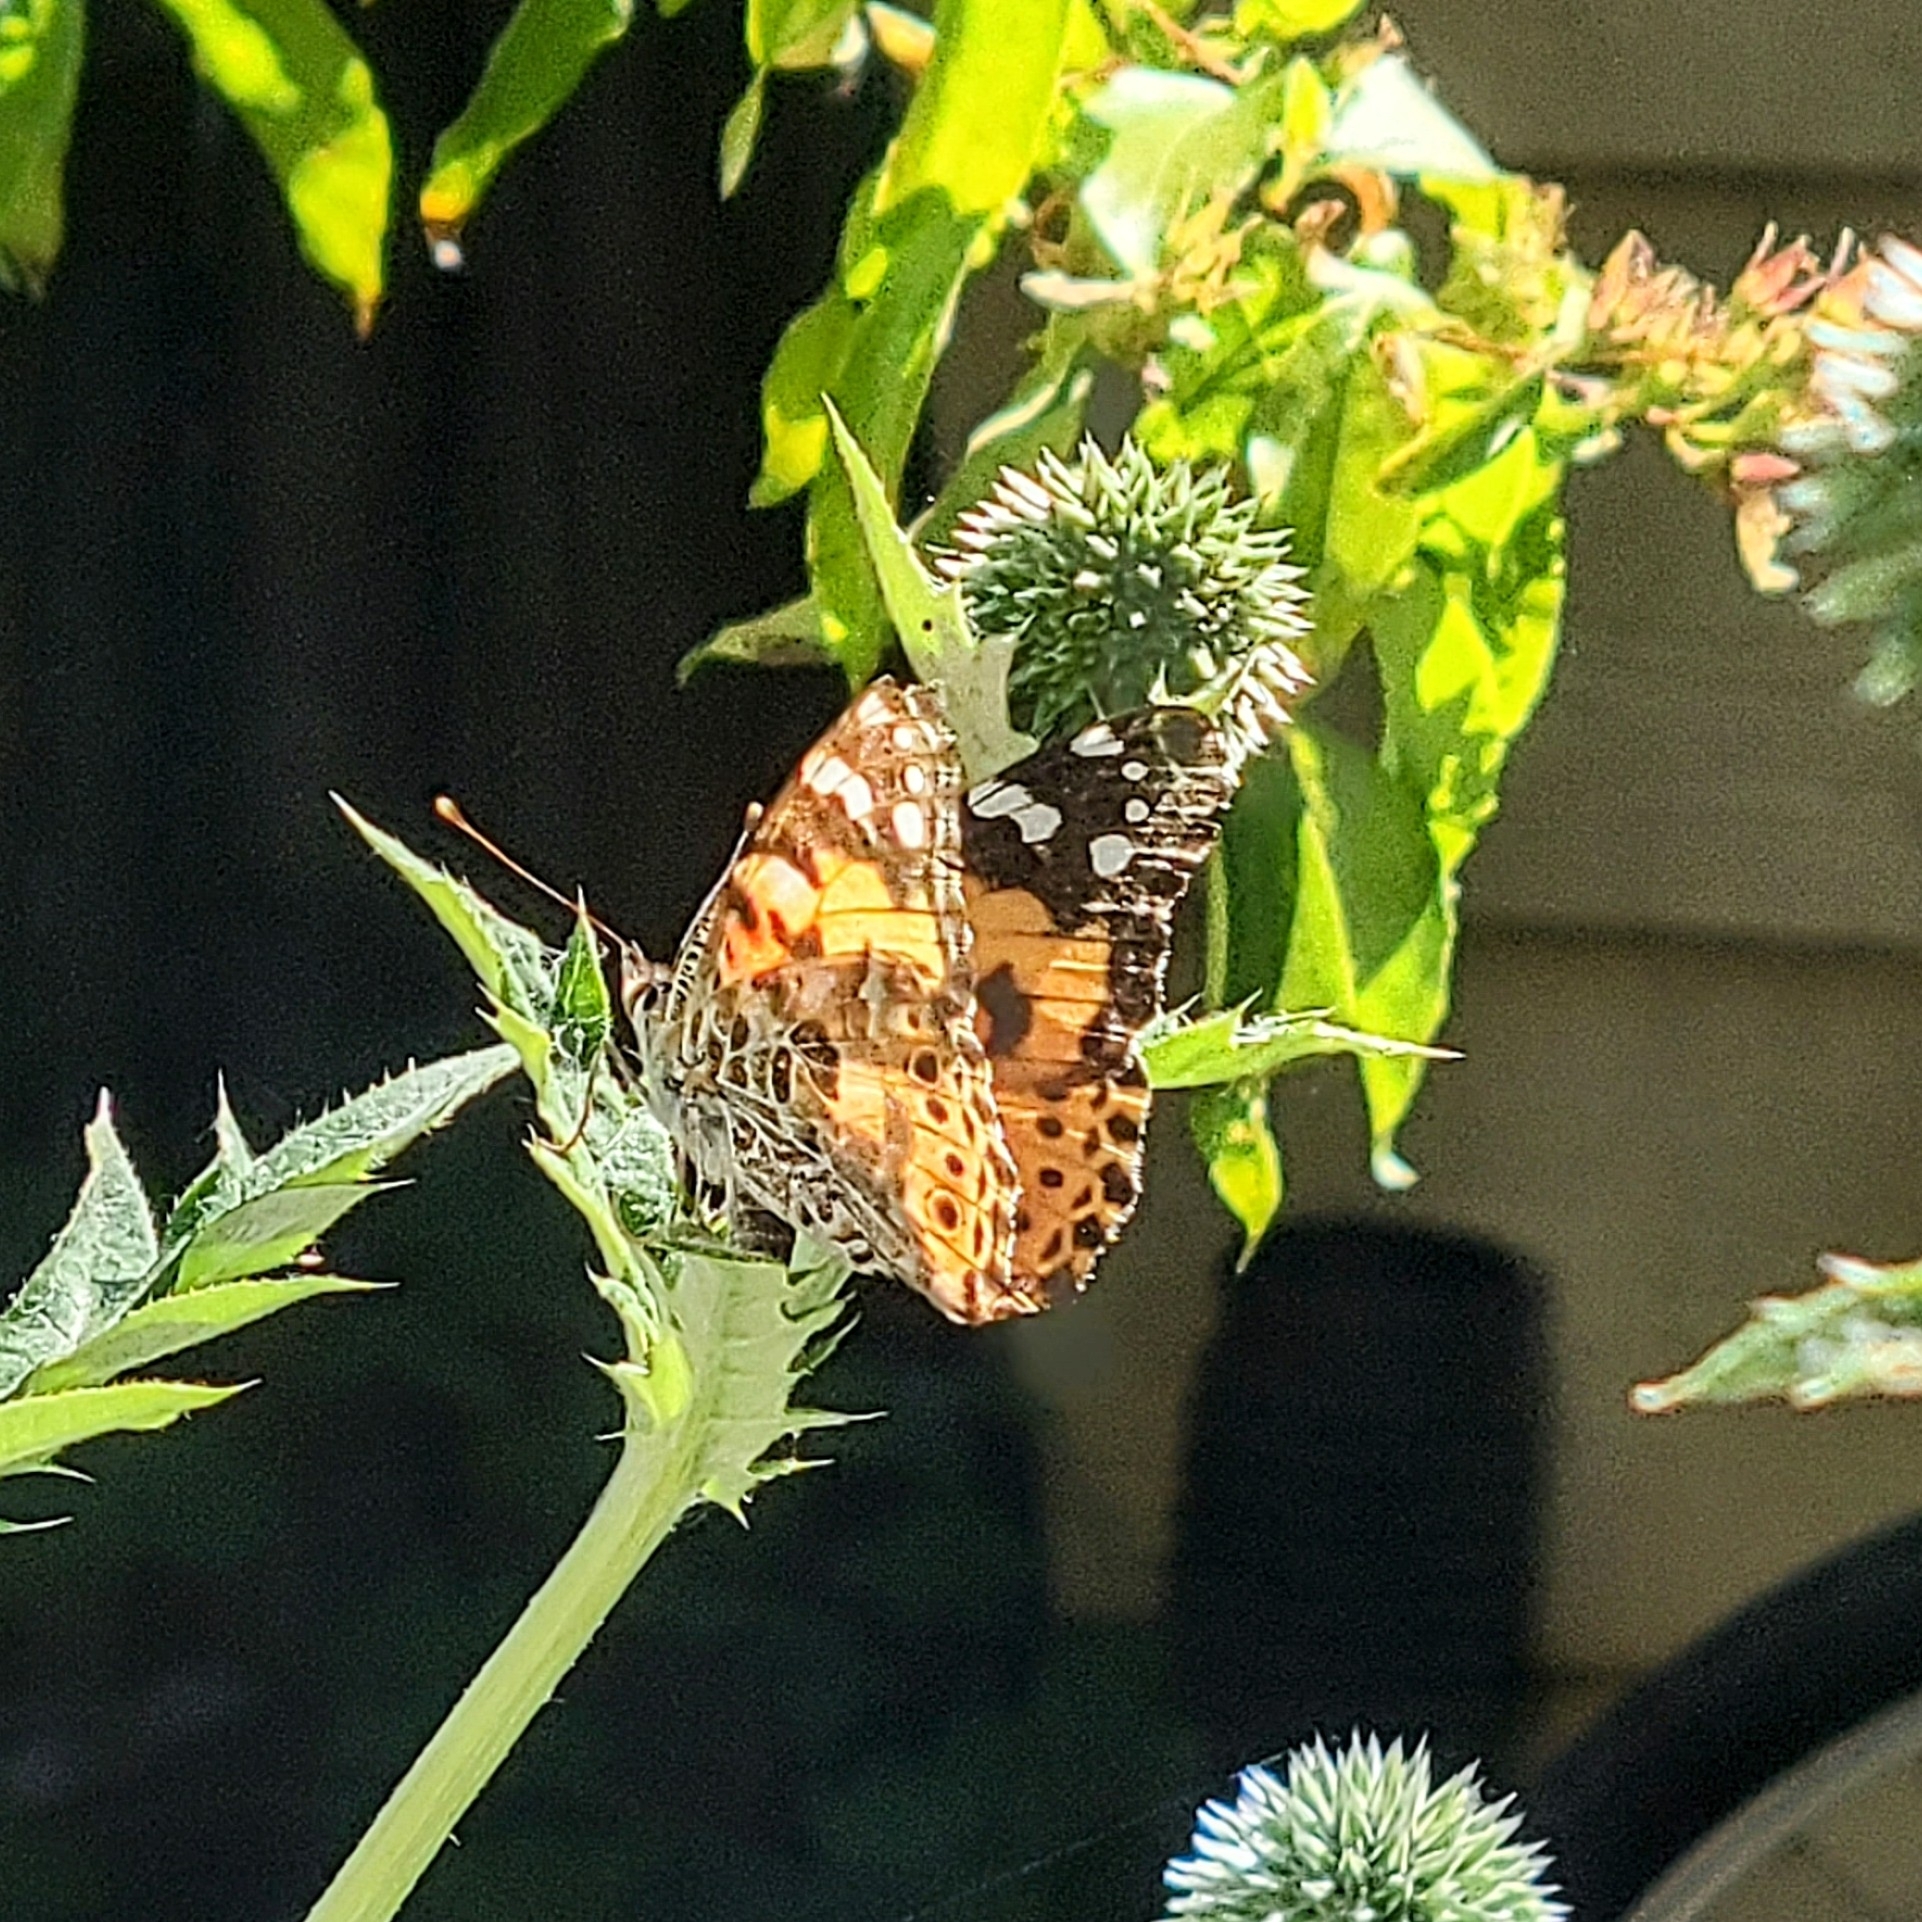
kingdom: Animalia
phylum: Arthropoda
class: Insecta
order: Lepidoptera
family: Nymphalidae
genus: Vanessa
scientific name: Vanessa cardui
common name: Painted lady
